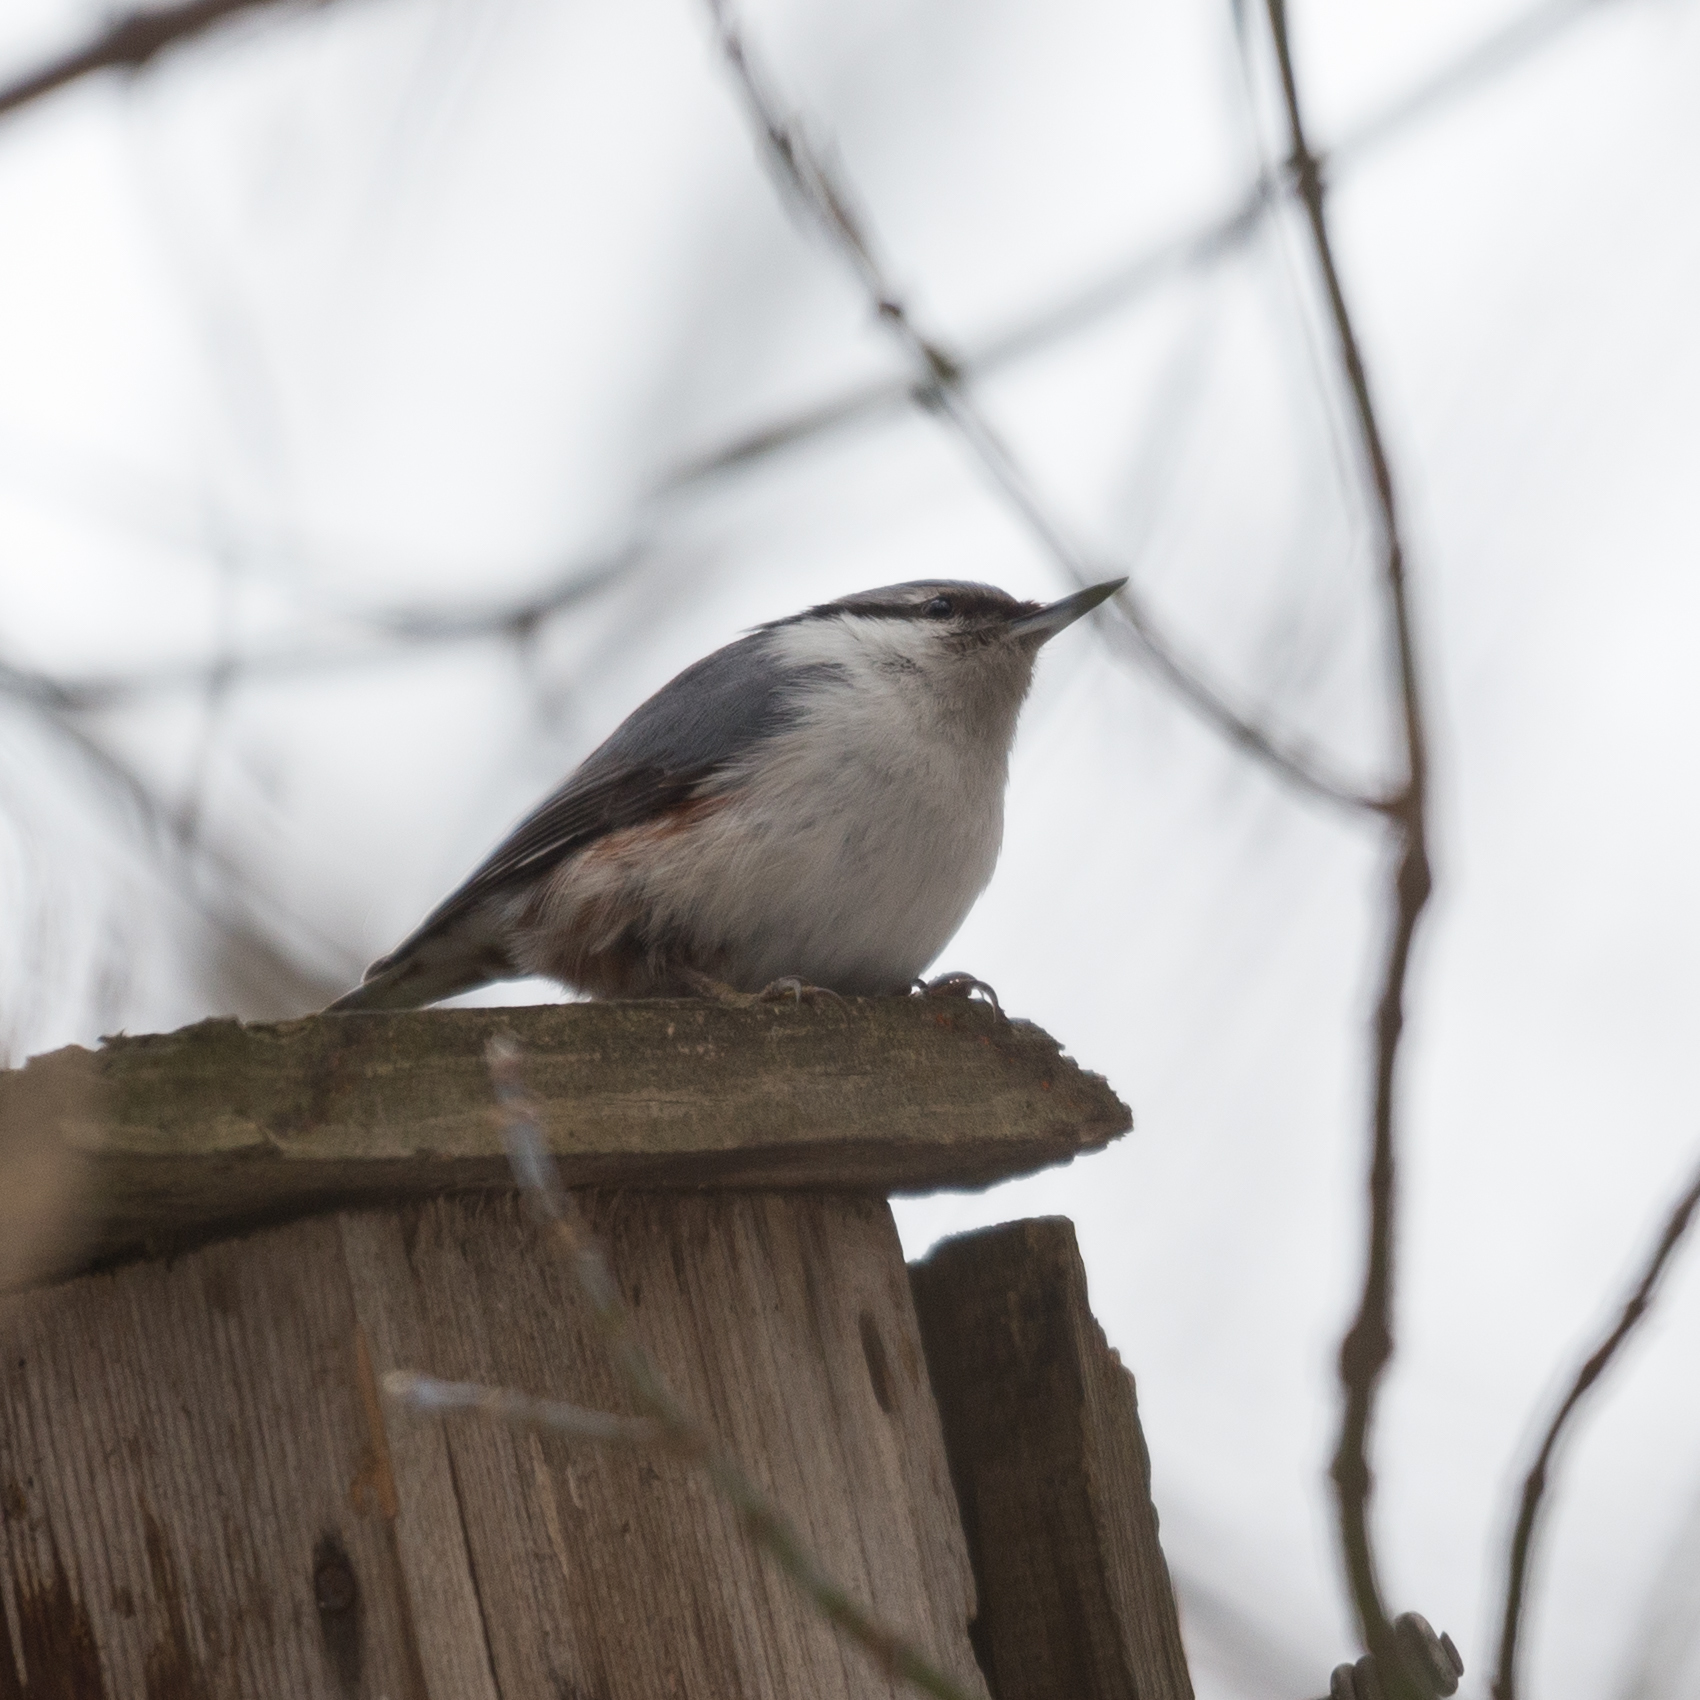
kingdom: Animalia
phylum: Chordata
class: Aves
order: Passeriformes
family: Sittidae
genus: Sitta
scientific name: Sitta europaea
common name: Eurasian nuthatch
